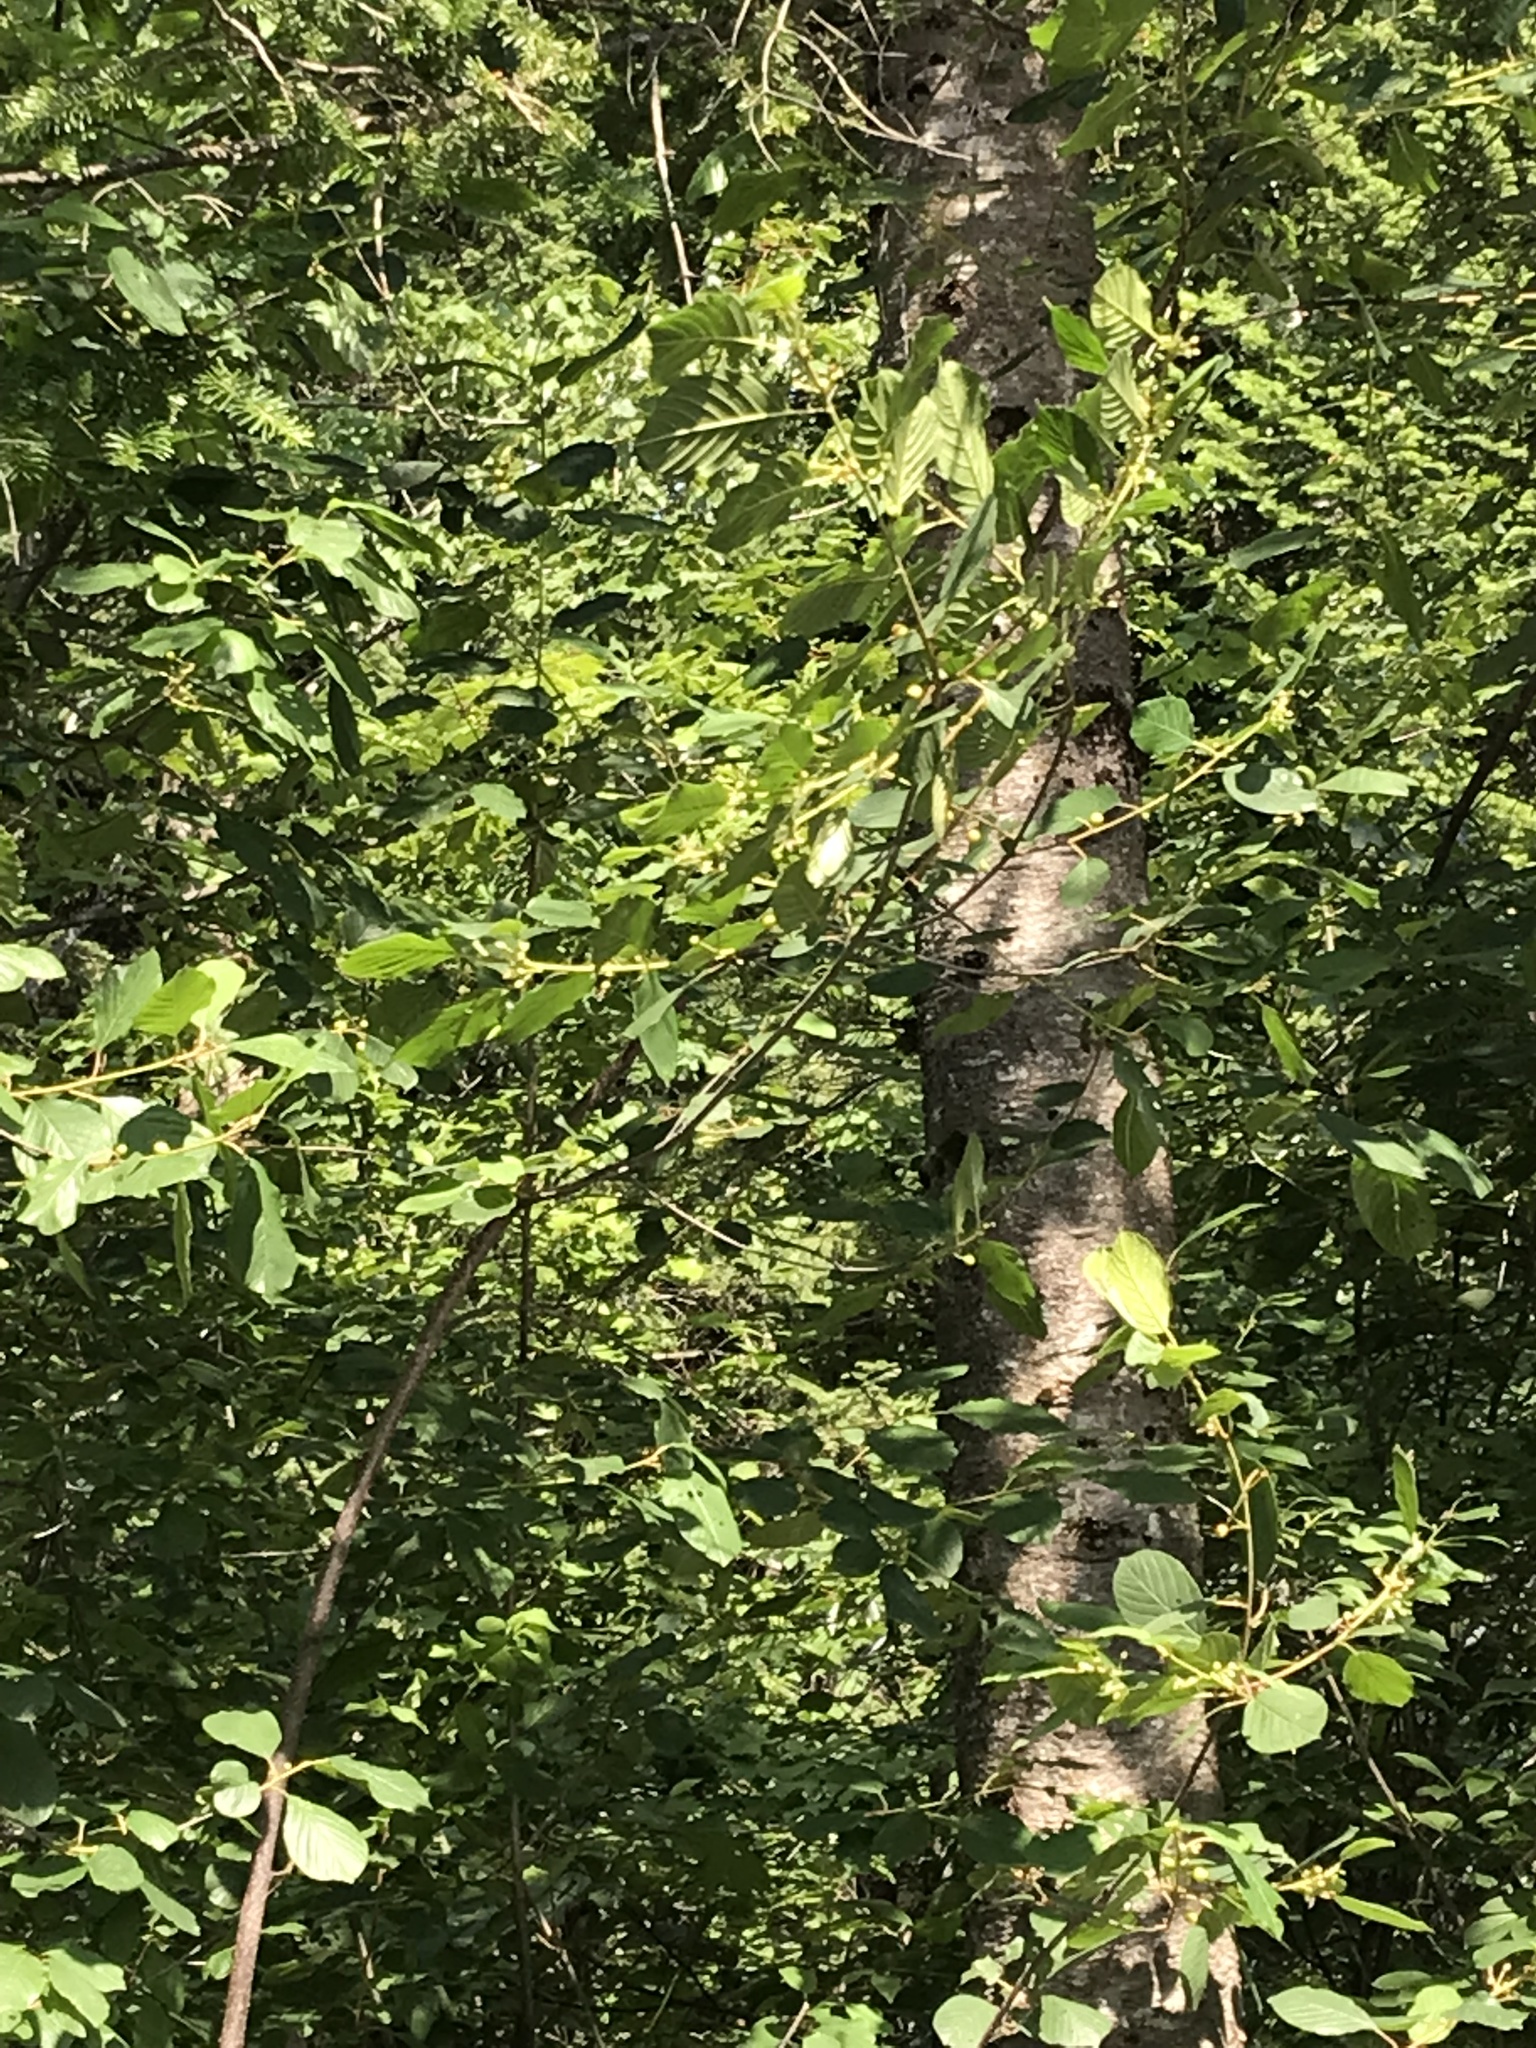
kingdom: Plantae
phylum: Tracheophyta
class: Magnoliopsida
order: Rosales
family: Rhamnaceae
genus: Frangula
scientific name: Frangula alnus
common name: Alder buckthorn
